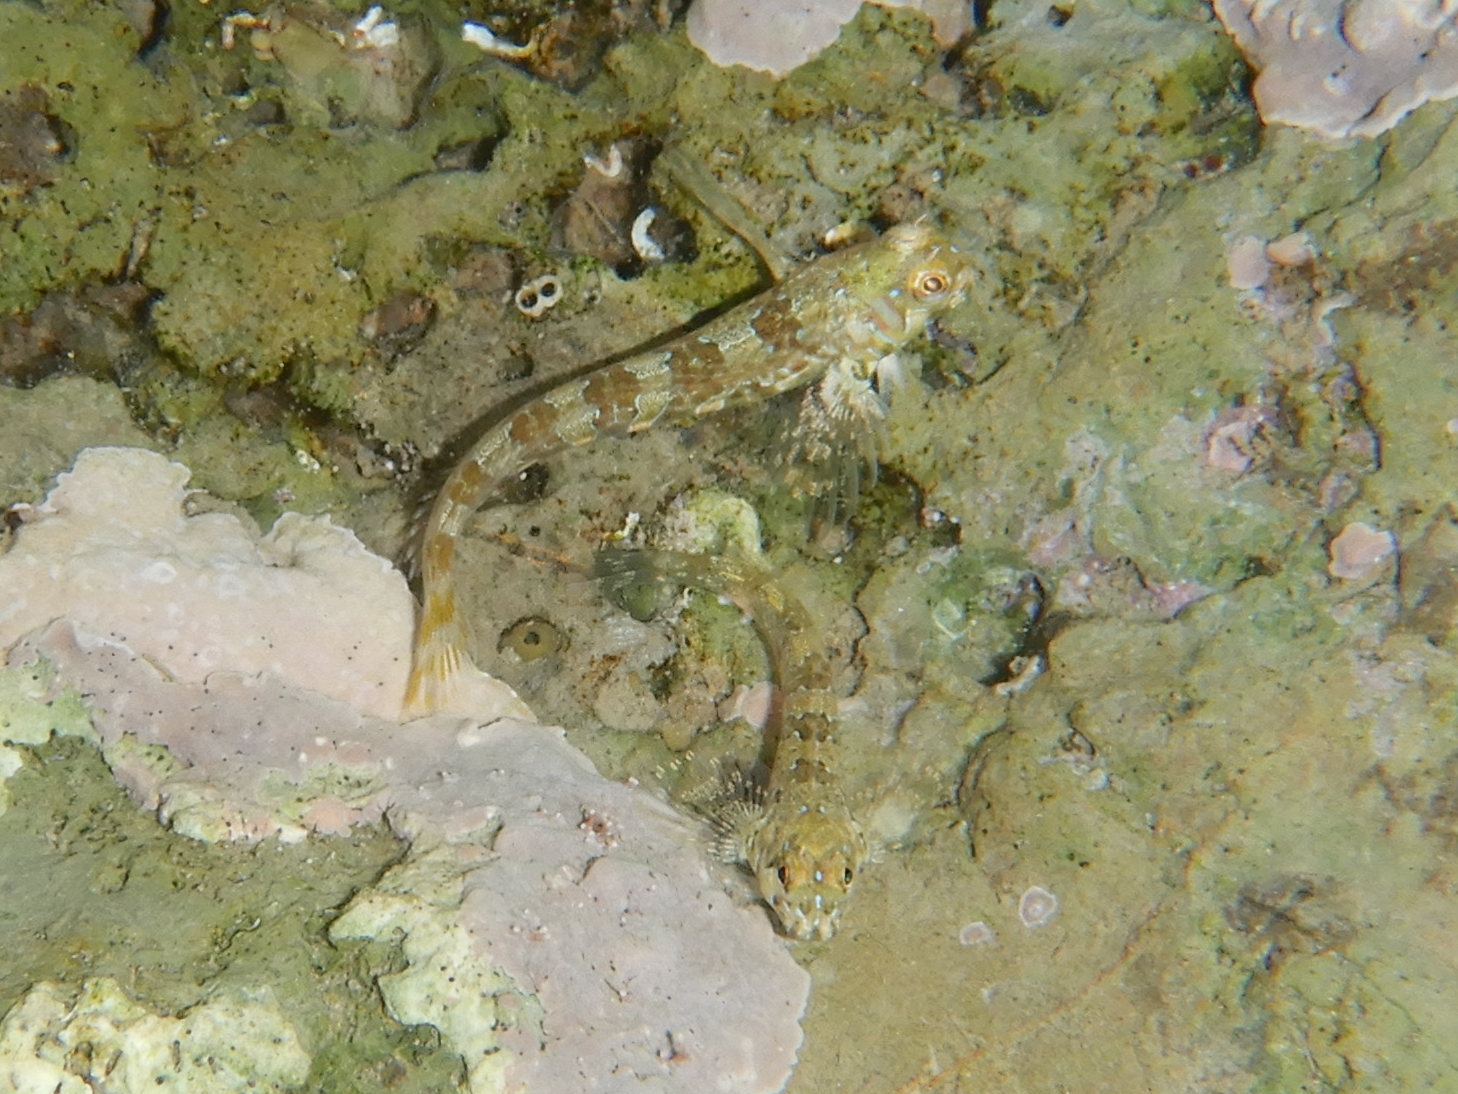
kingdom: Animalia
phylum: Chordata
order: Perciformes
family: Blenniidae
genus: Aidablennius
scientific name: Aidablennius sphynx
